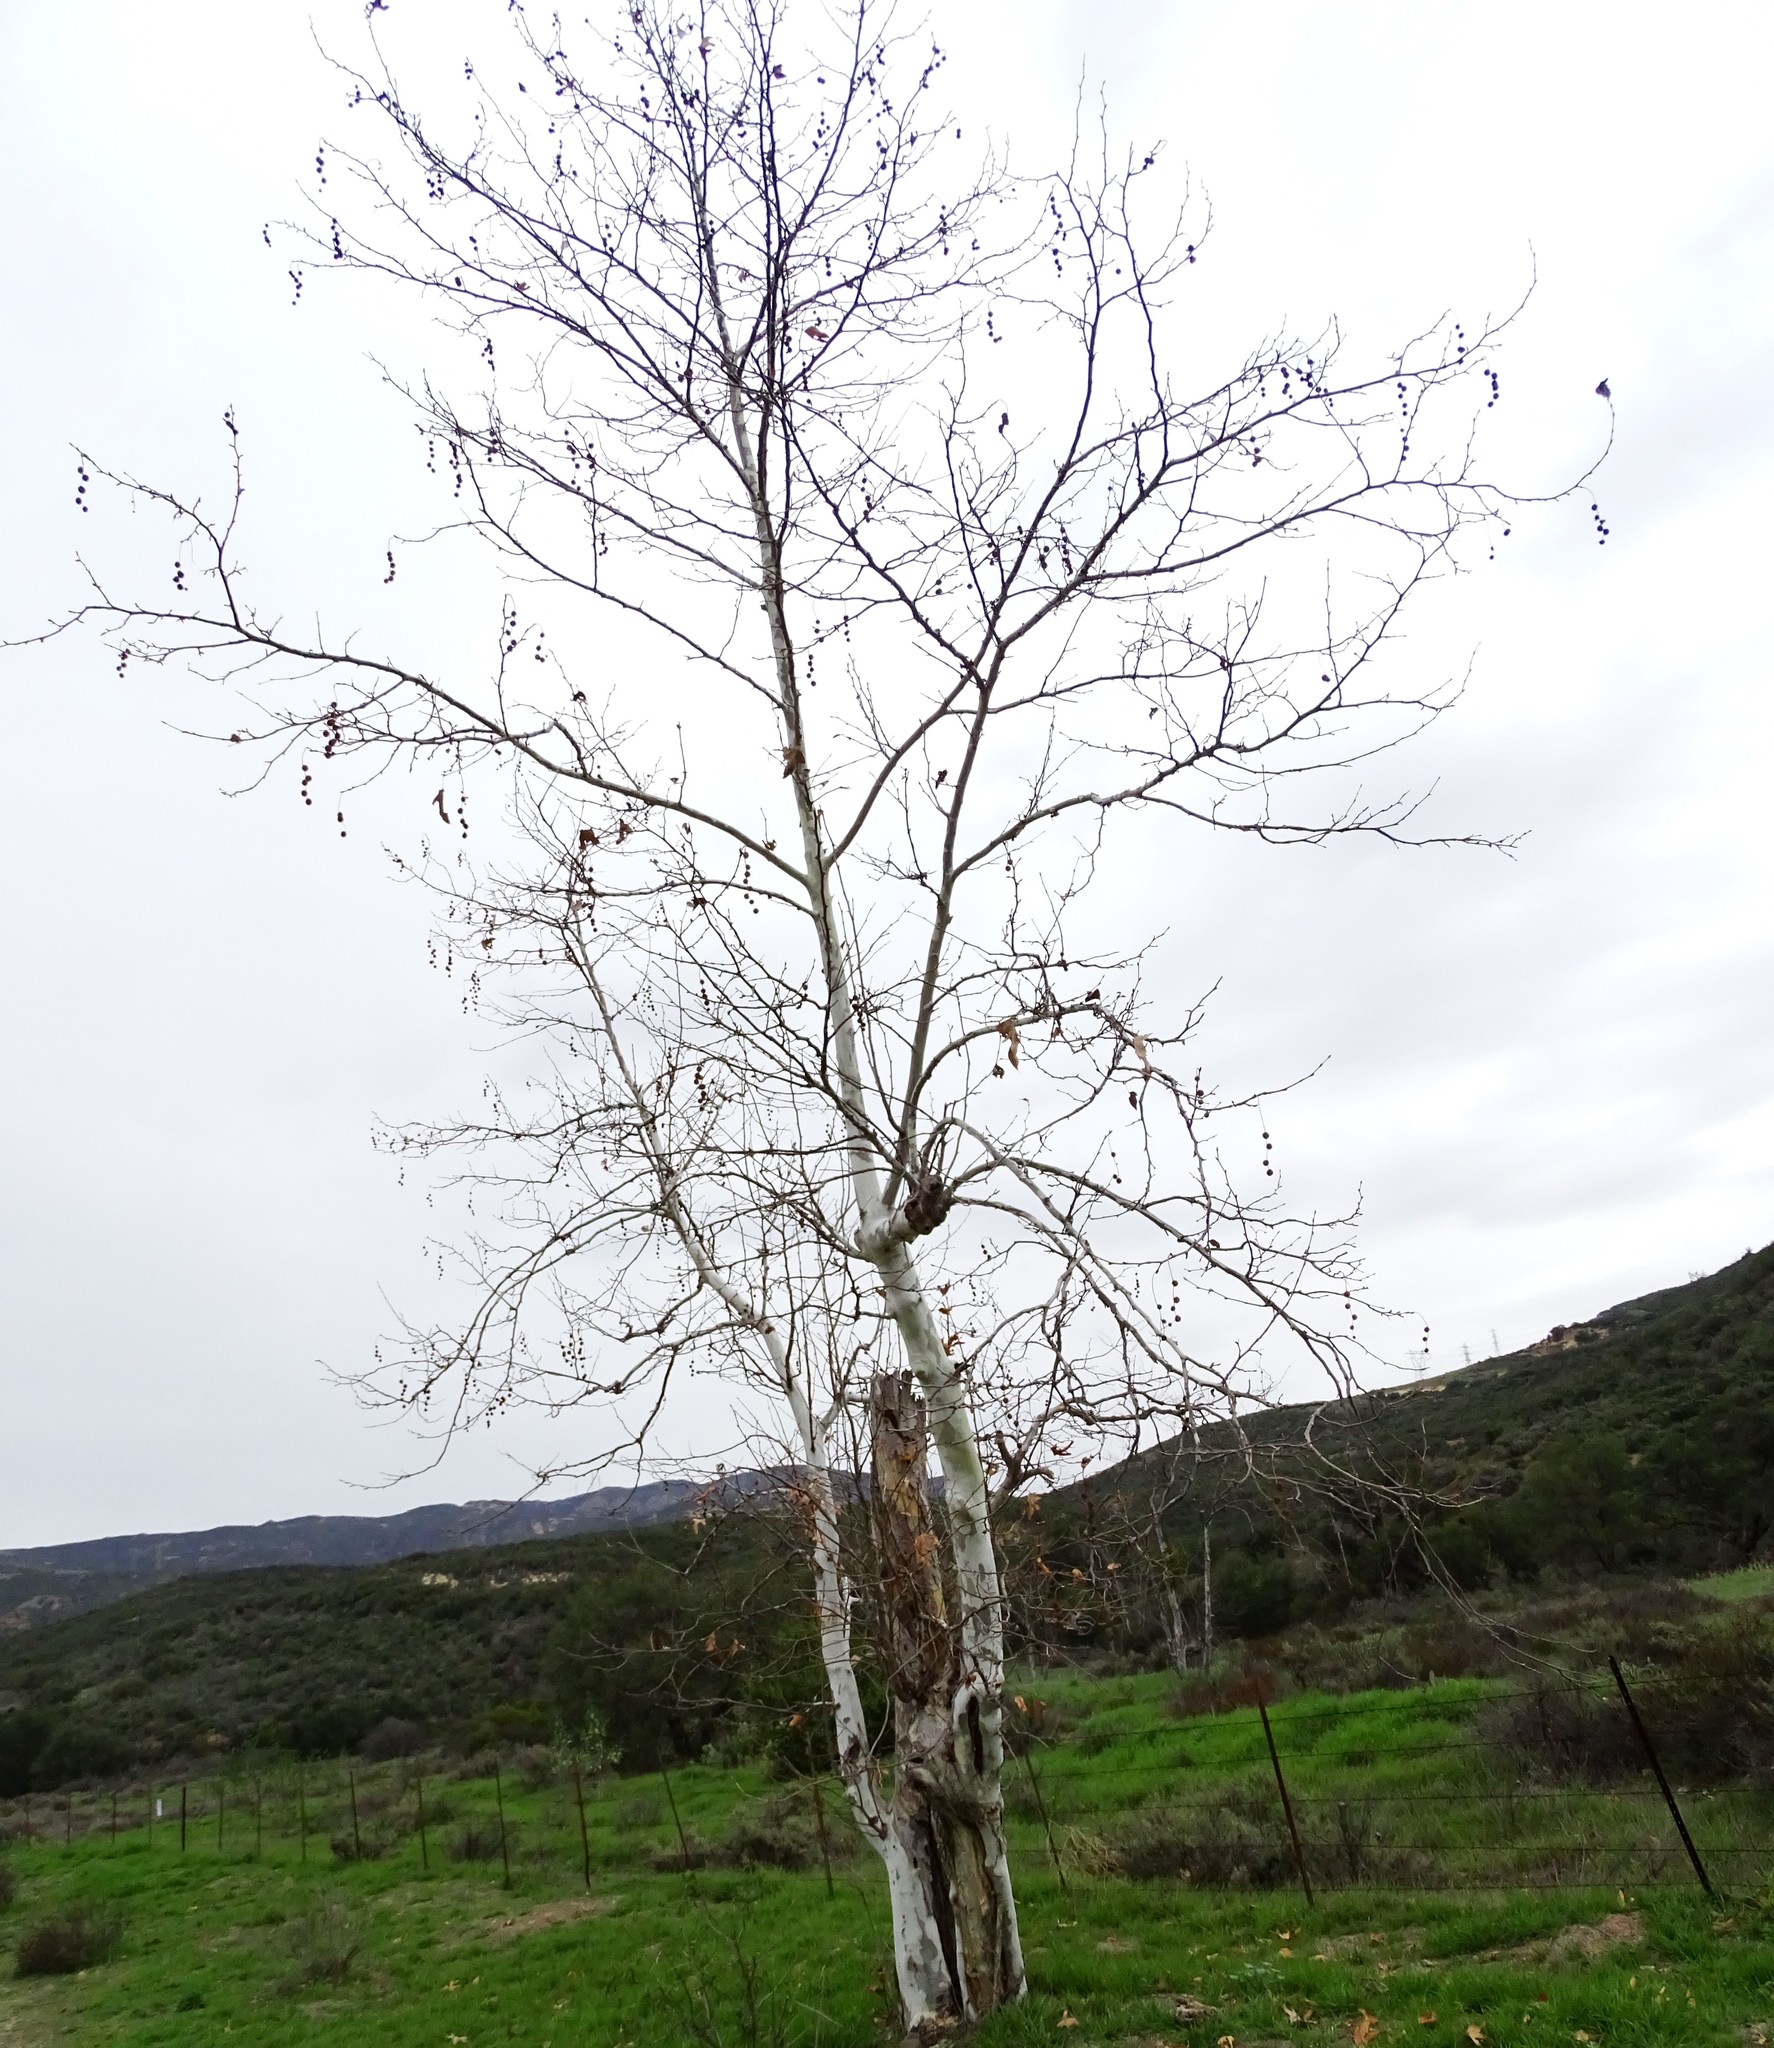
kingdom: Plantae
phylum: Tracheophyta
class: Magnoliopsida
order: Proteales
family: Platanaceae
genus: Platanus
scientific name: Platanus racemosa
